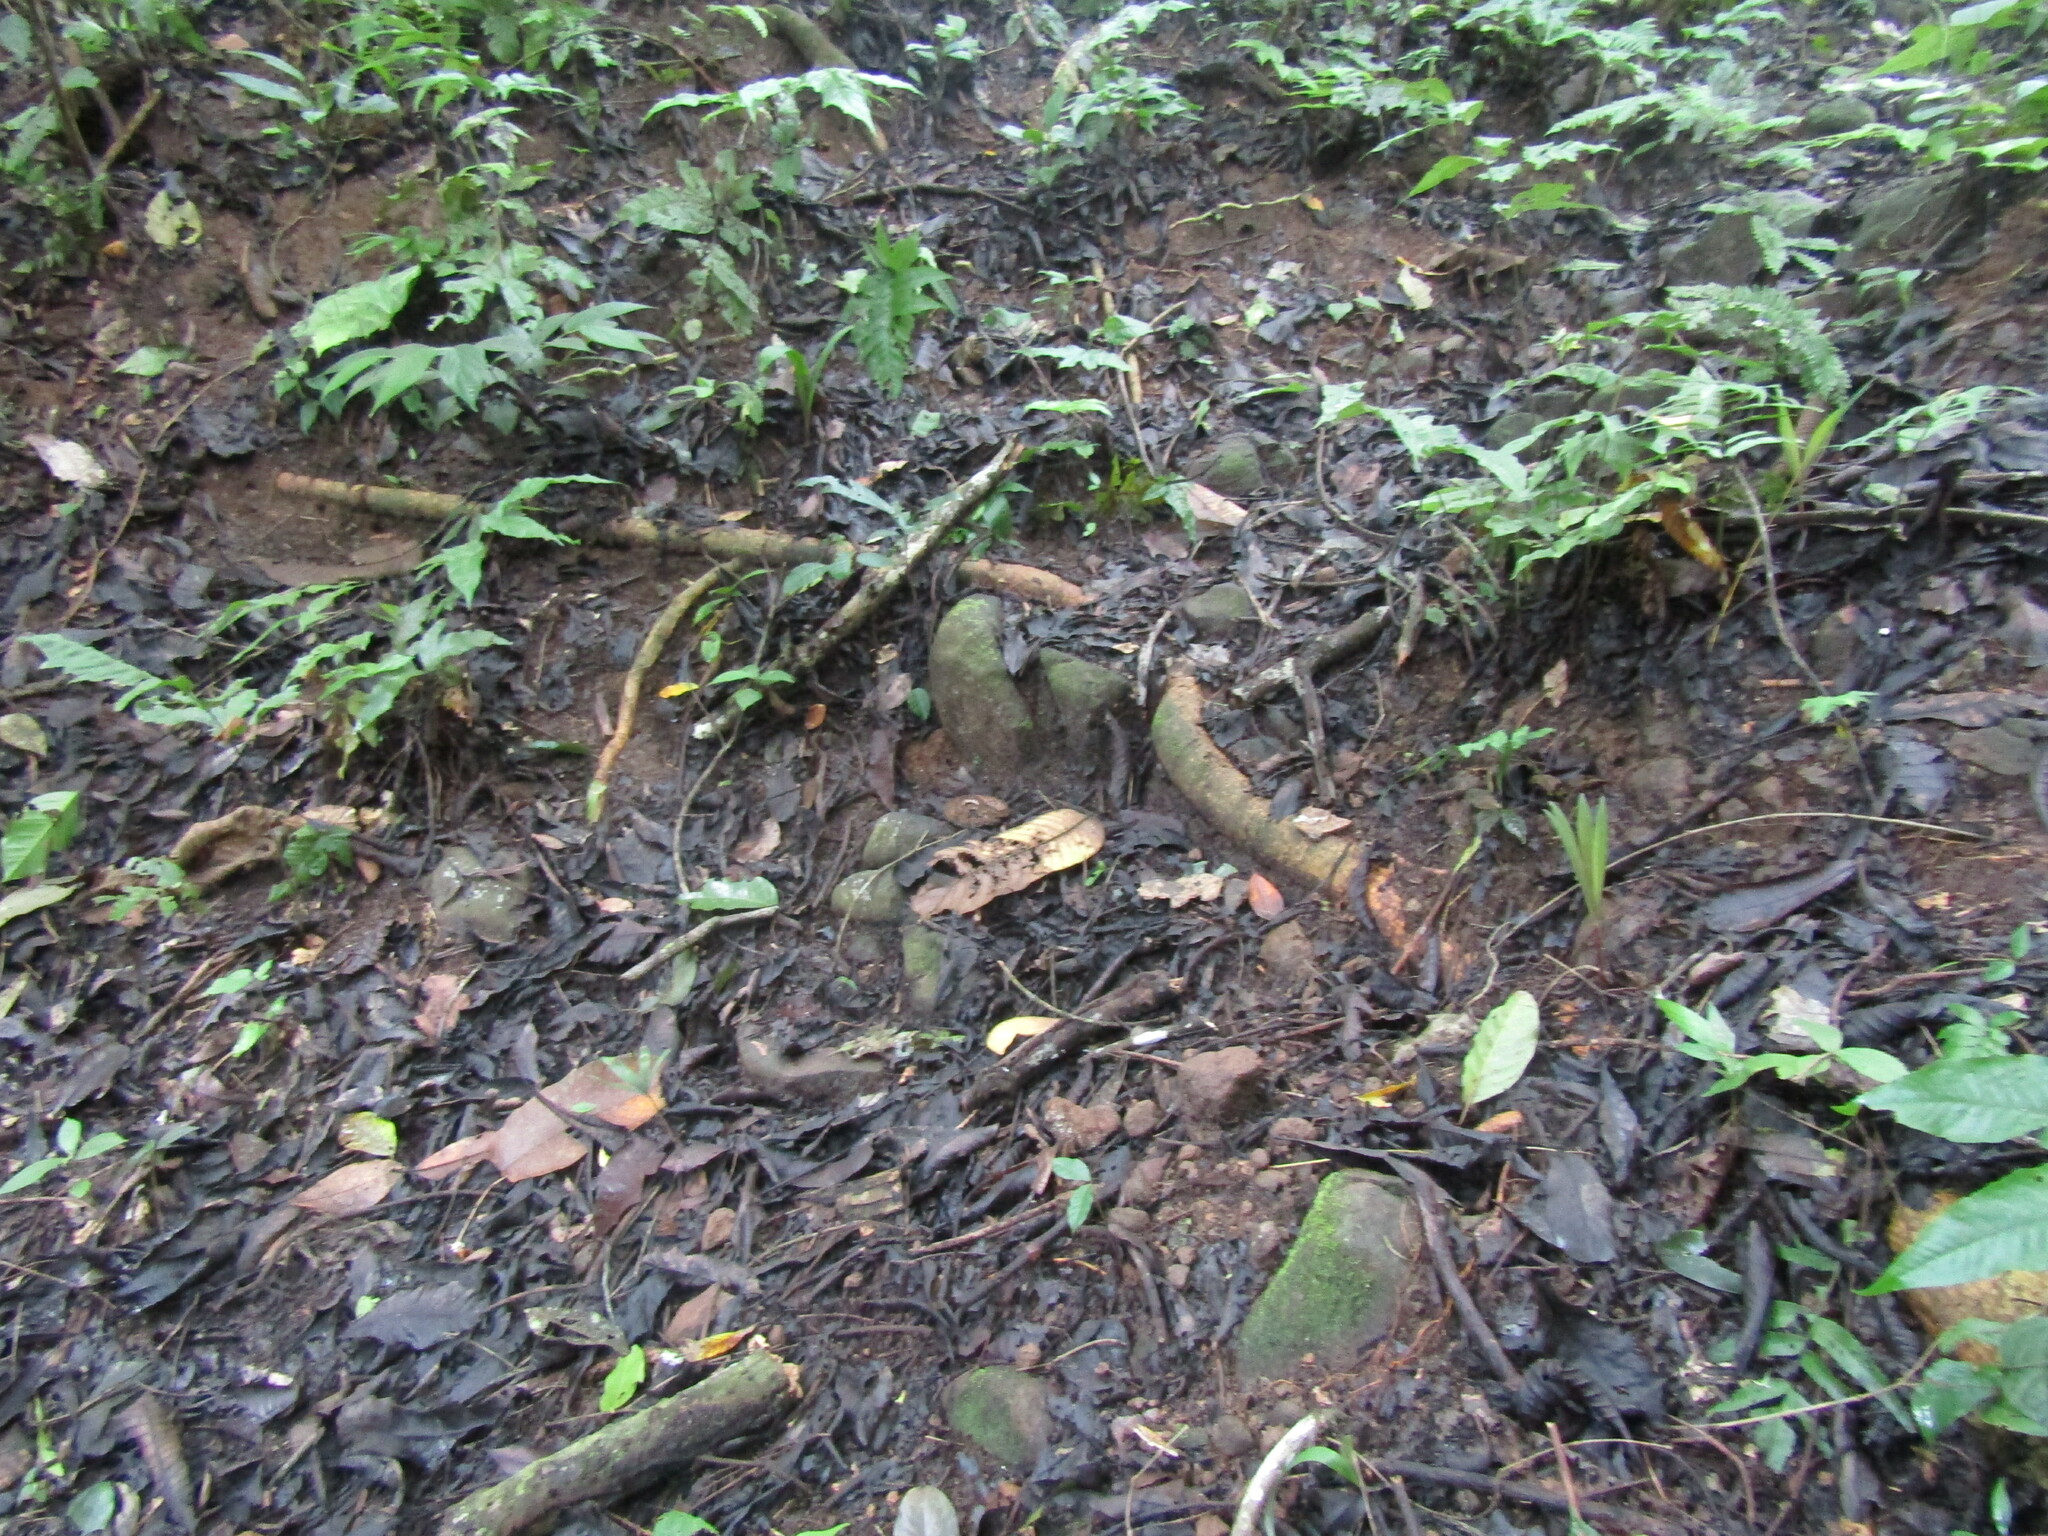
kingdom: Animalia
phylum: Chordata
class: Squamata
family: Viperidae
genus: Bothrops
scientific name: Bothrops asper
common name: Terciopelo
